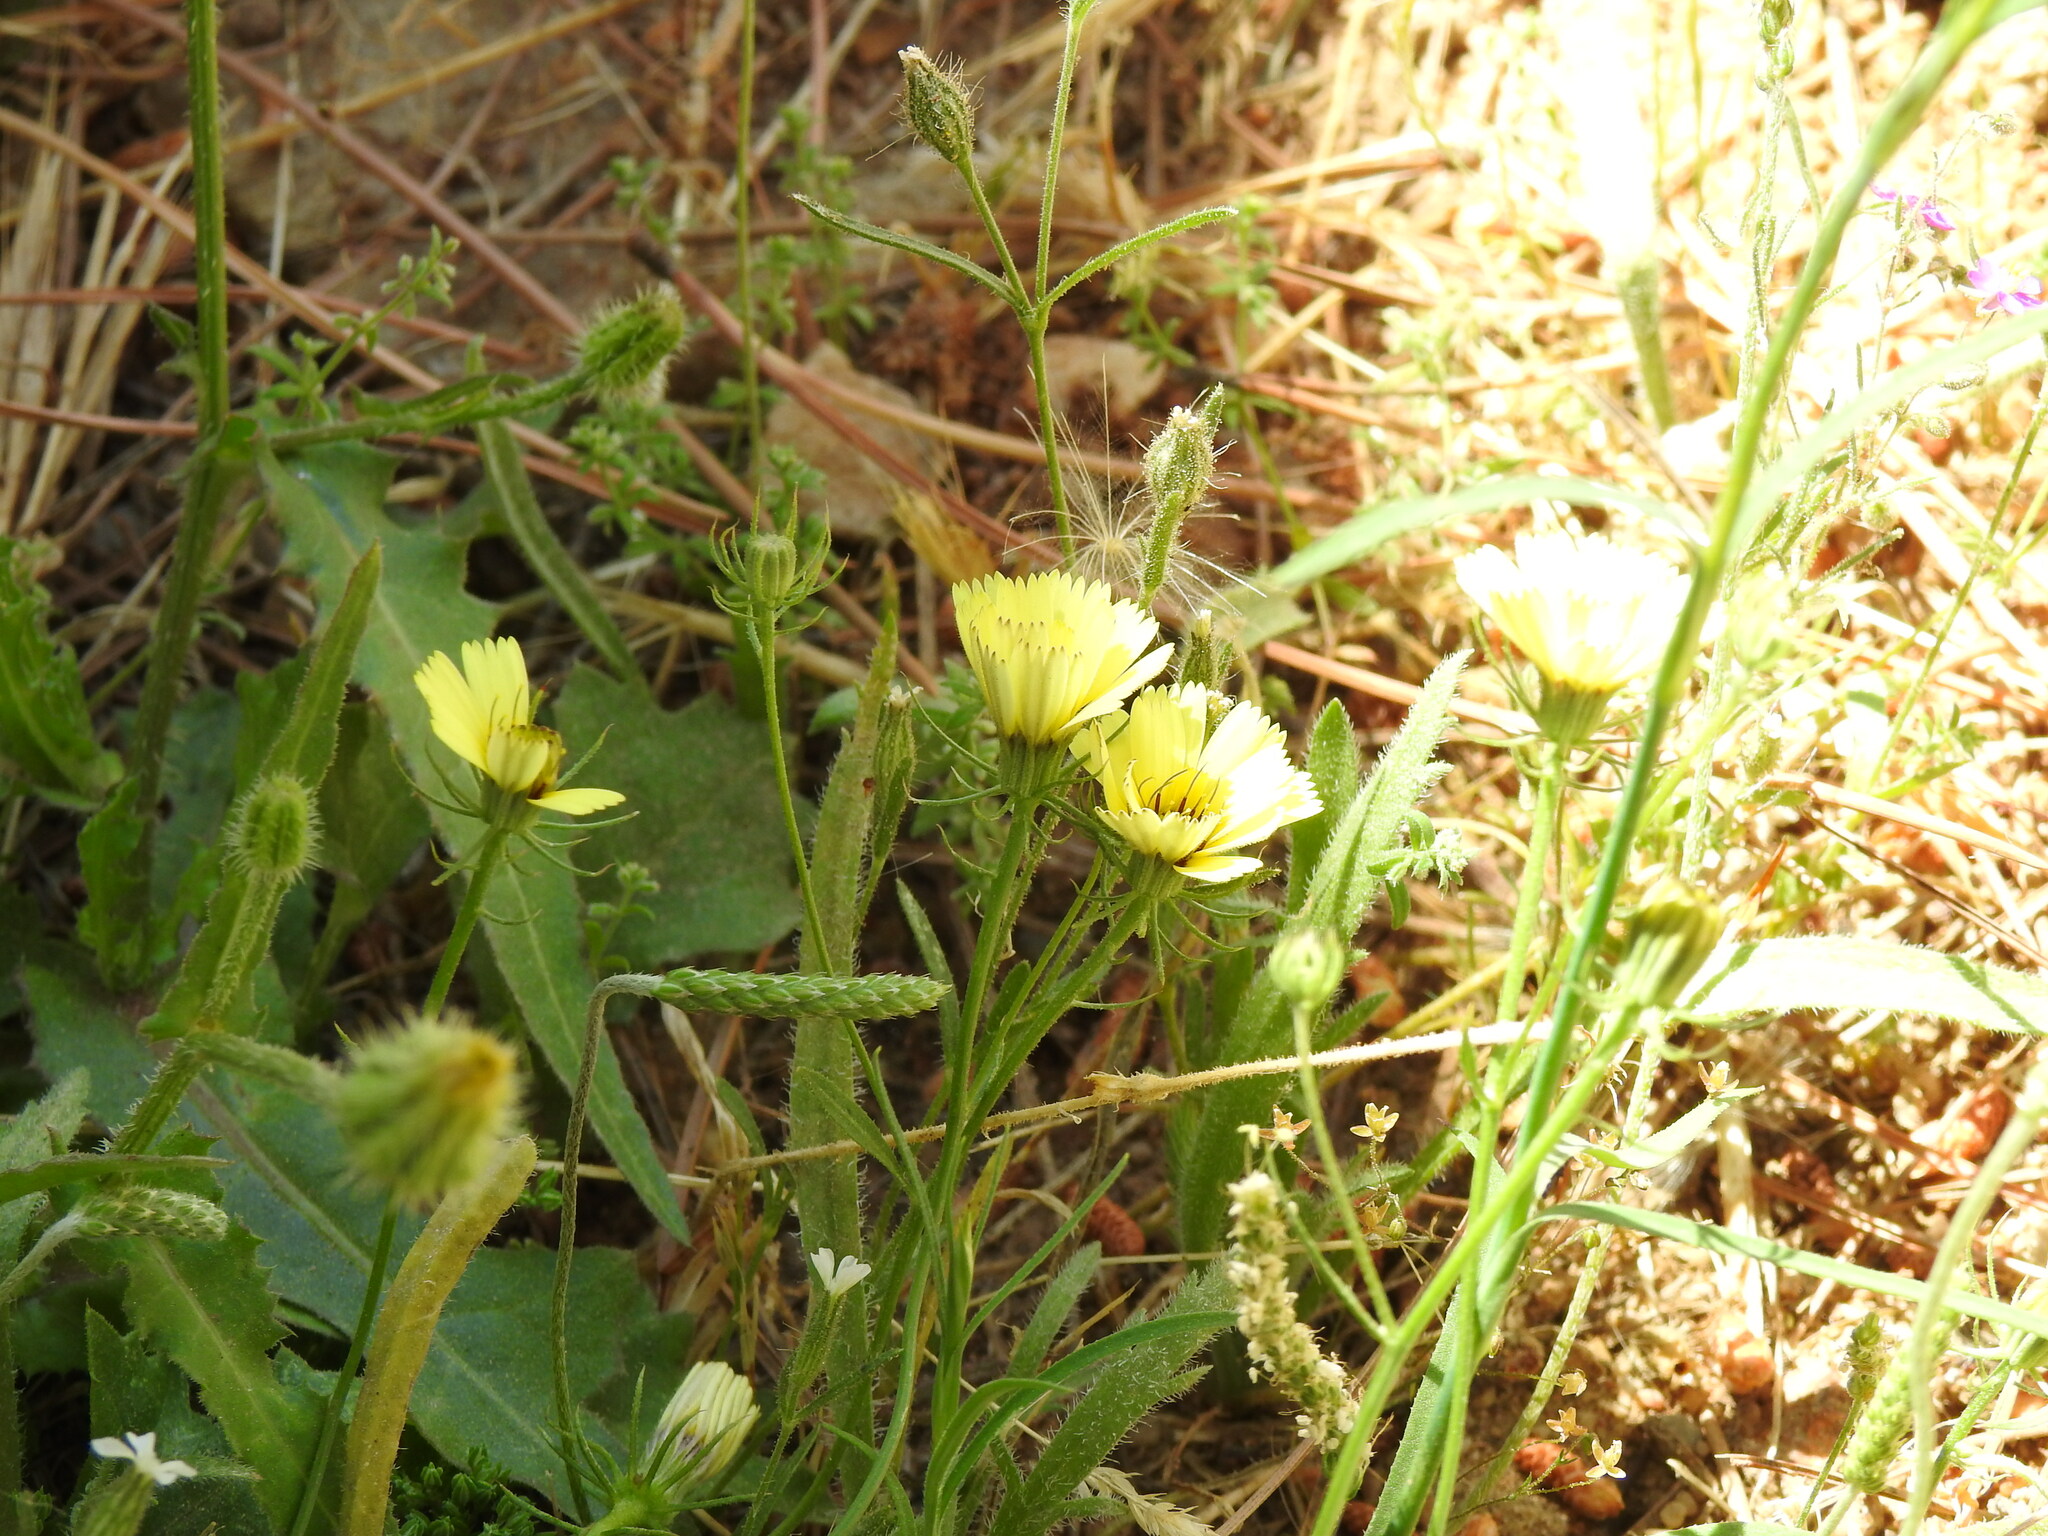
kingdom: Plantae
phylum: Tracheophyta
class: Magnoliopsida
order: Asterales
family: Asteraceae
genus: Tolpis
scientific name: Tolpis barbata
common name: Yellow hawkweed
